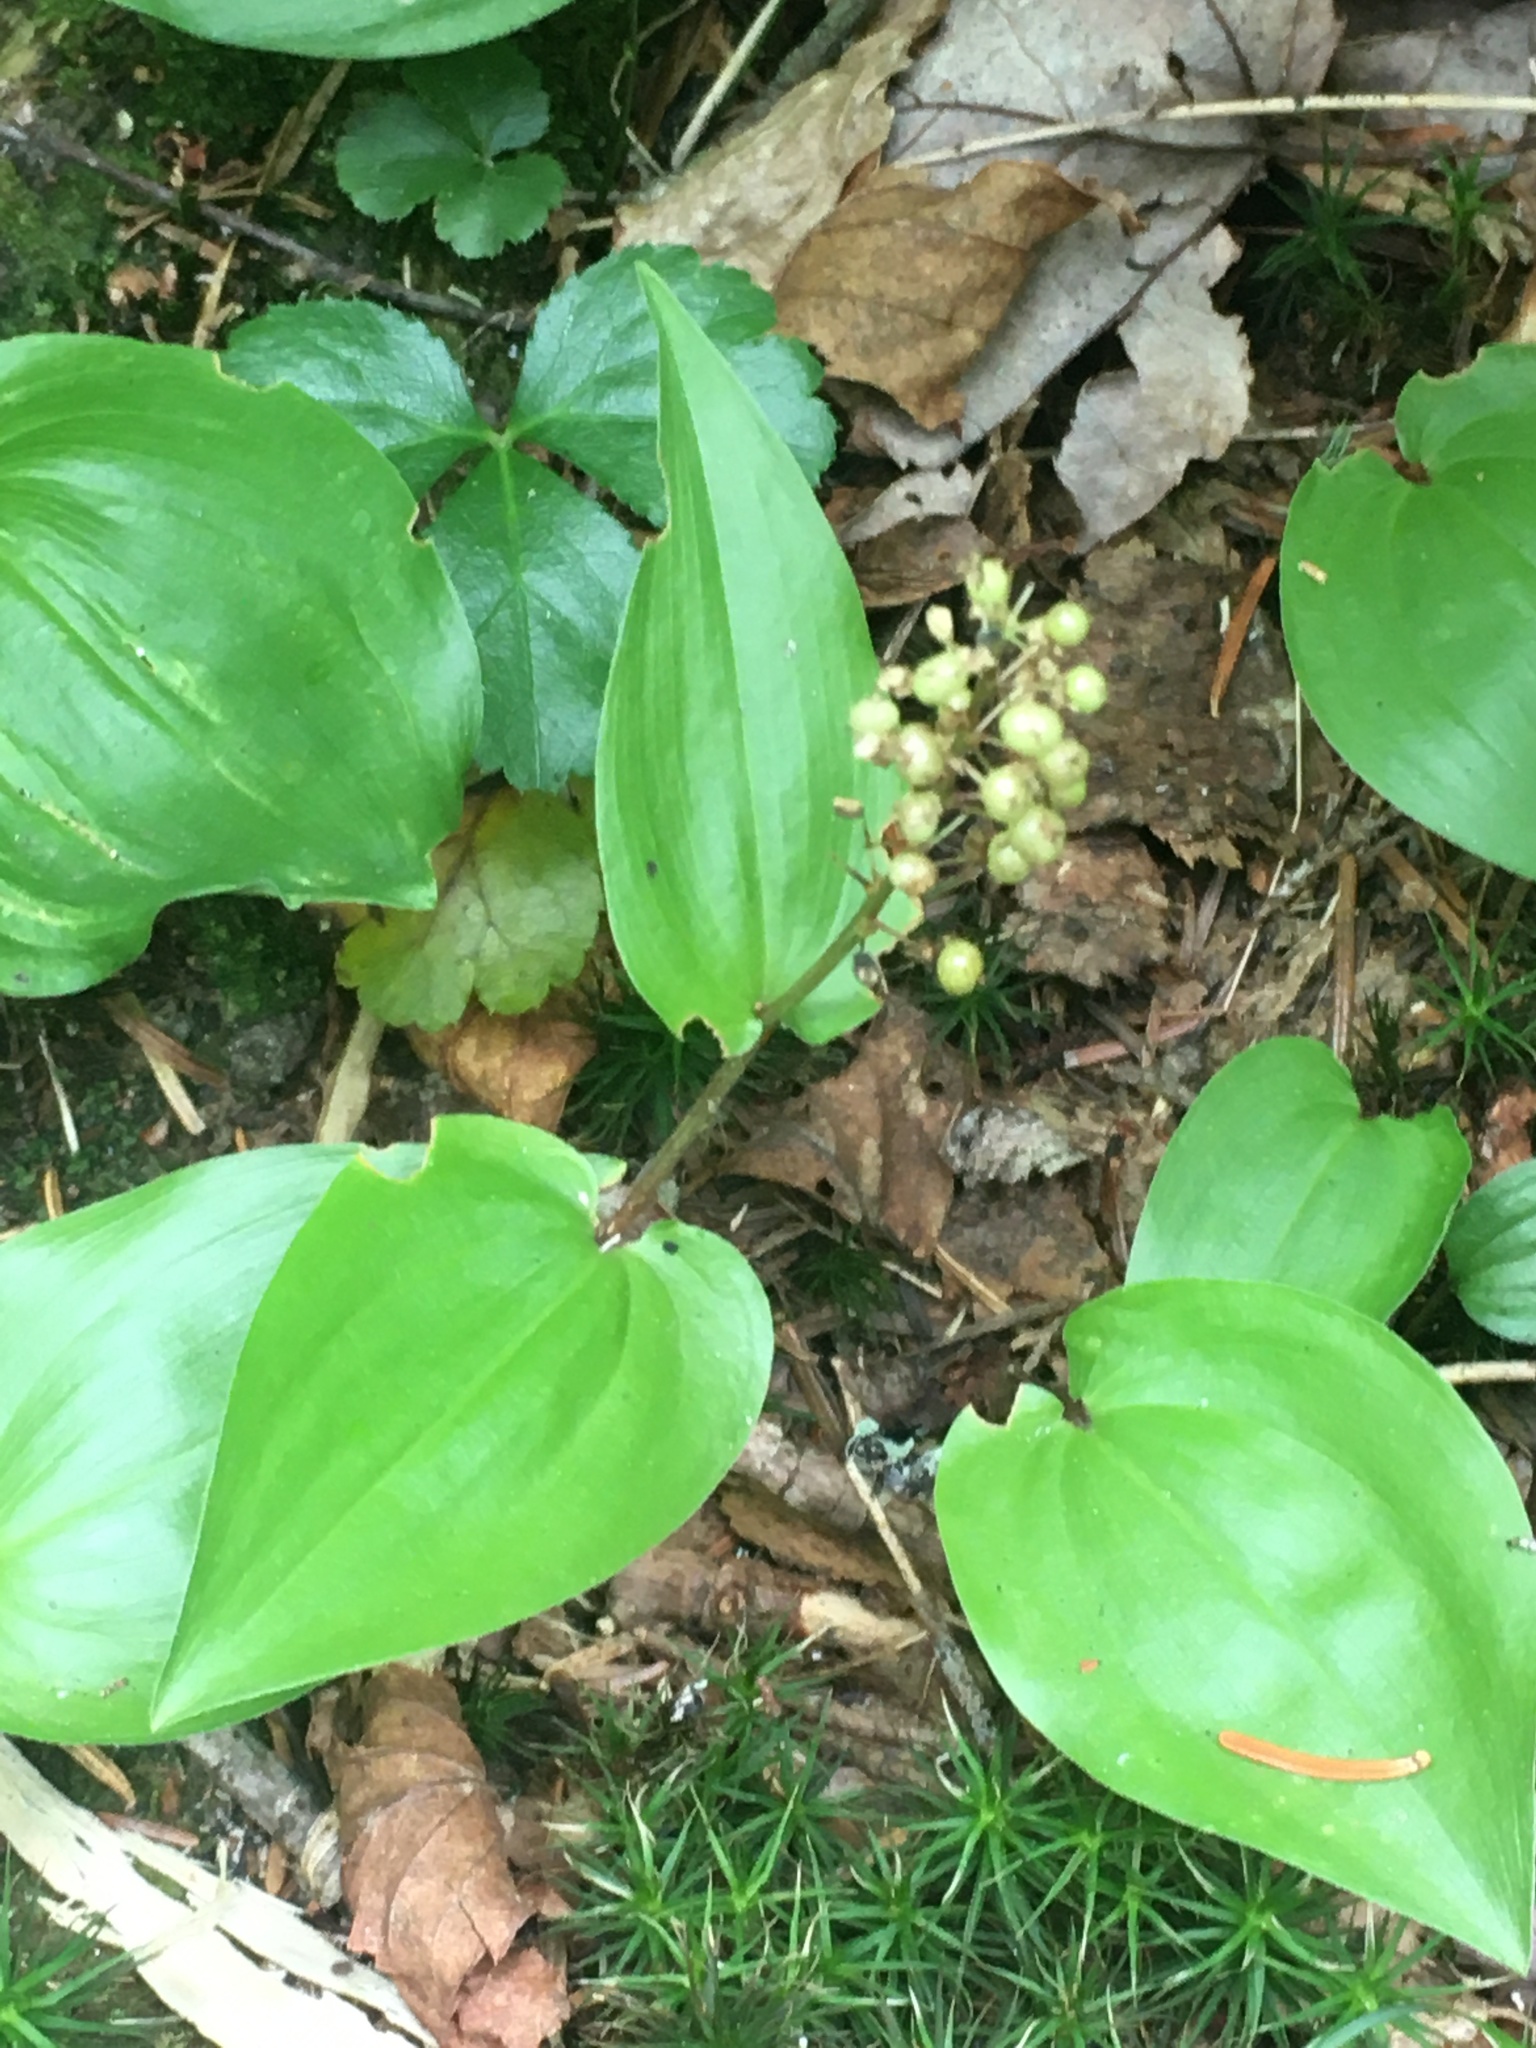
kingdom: Plantae
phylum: Tracheophyta
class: Liliopsida
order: Asparagales
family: Asparagaceae
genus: Maianthemum
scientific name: Maianthemum canadense
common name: False lily-of-the-valley
